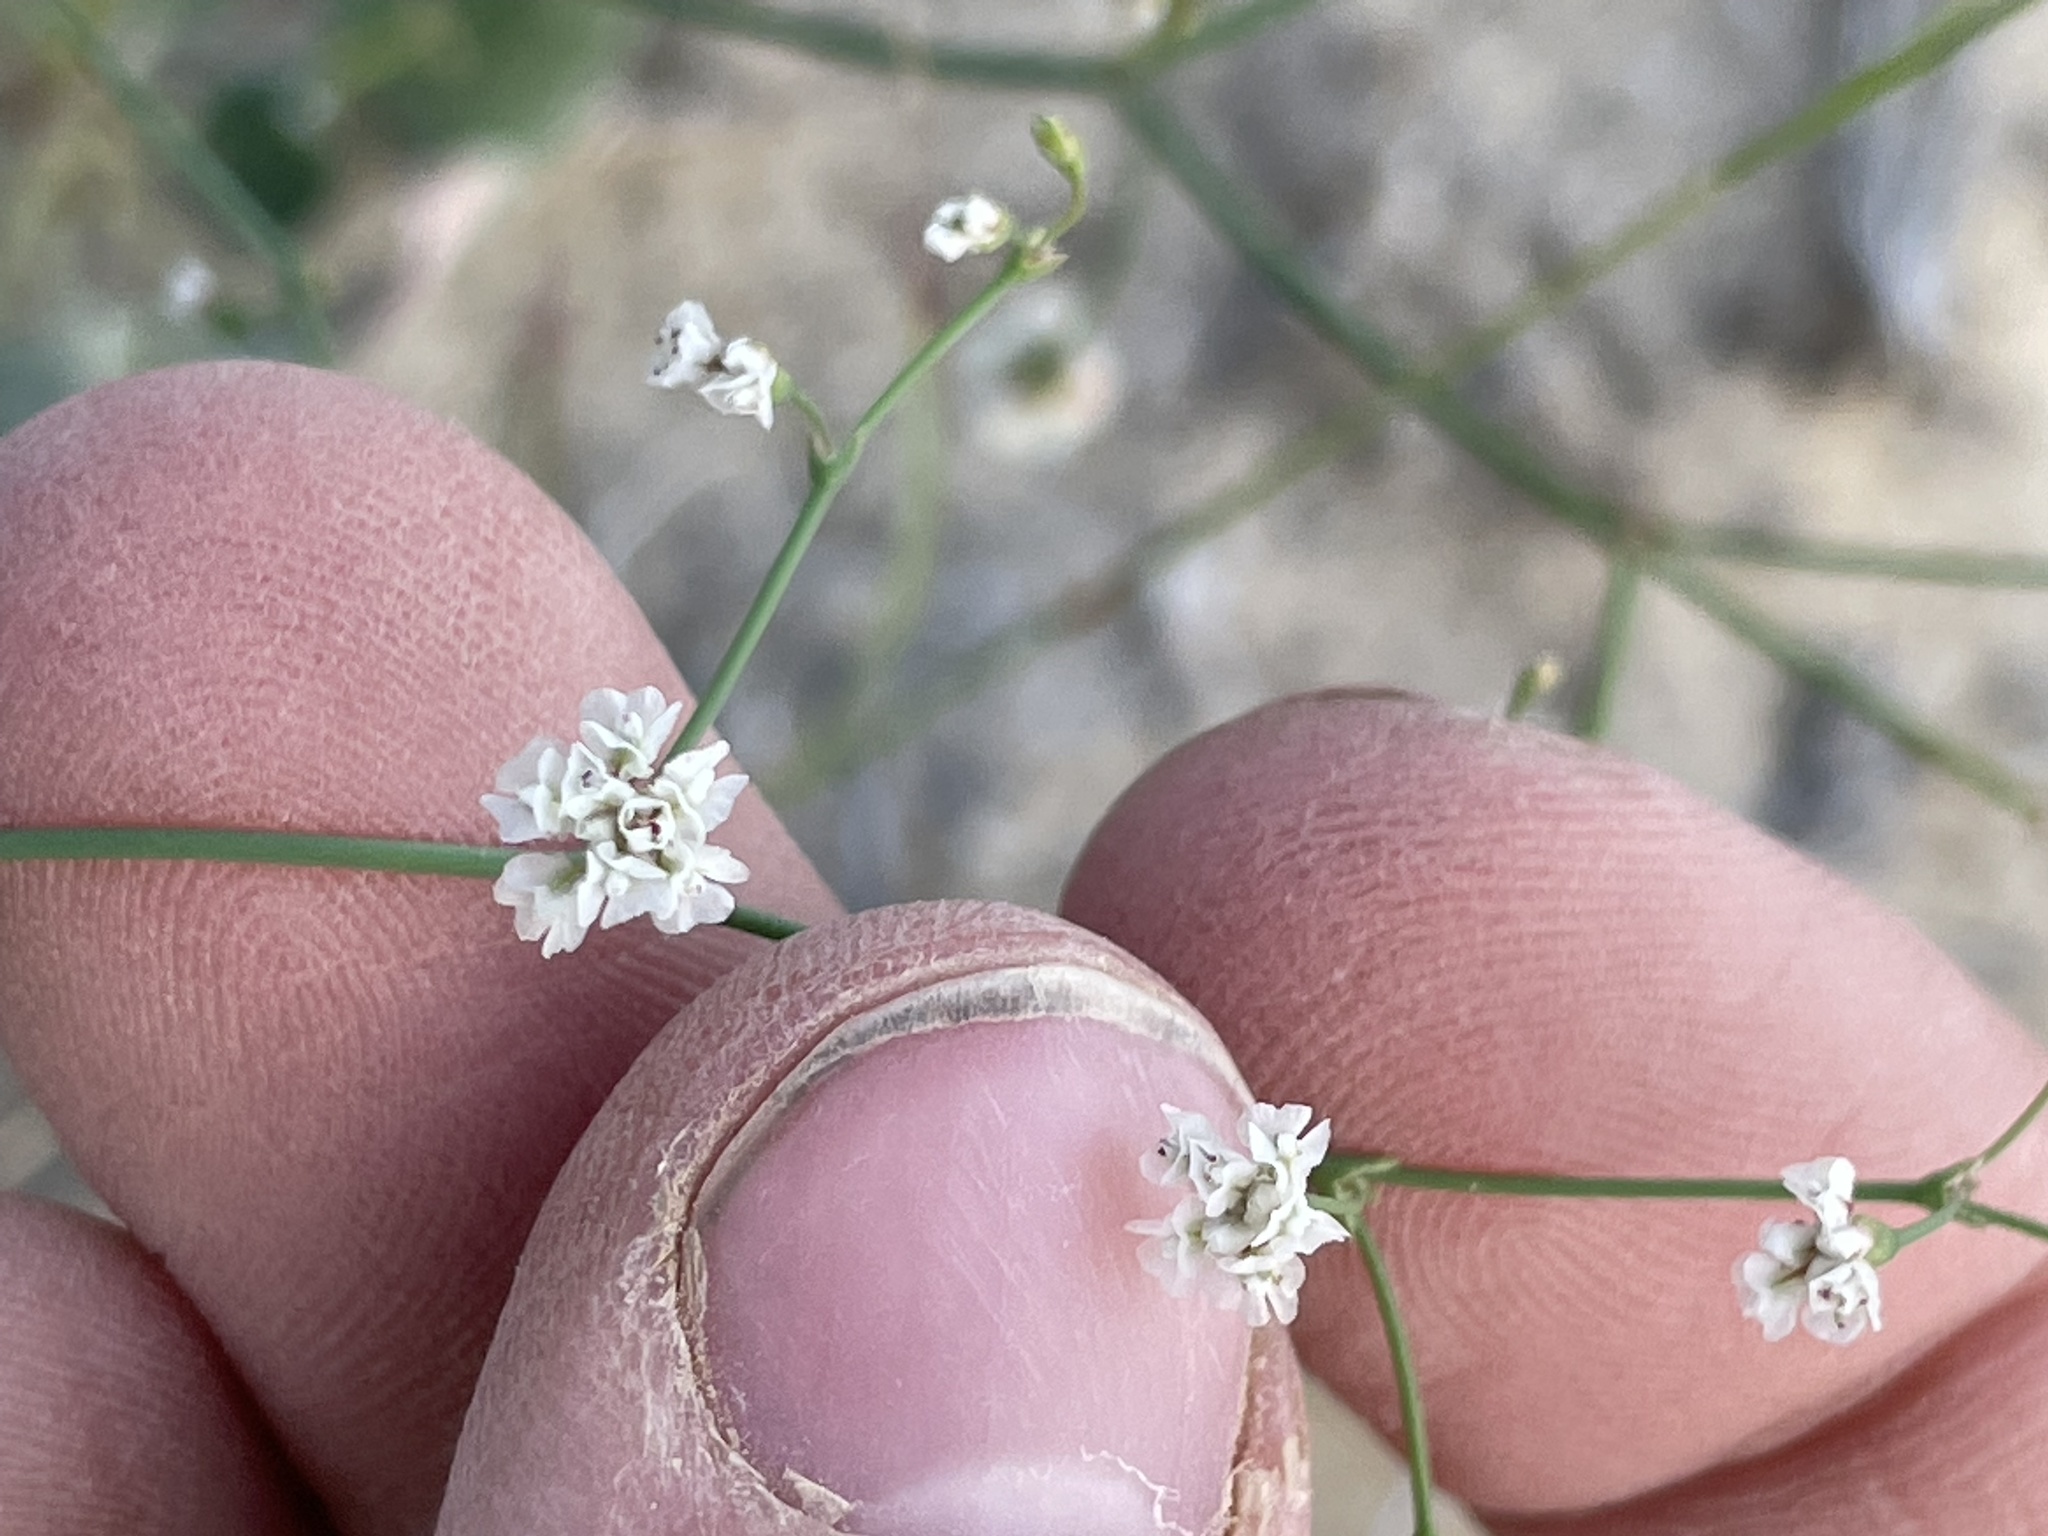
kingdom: Plantae
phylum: Tracheophyta
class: Magnoliopsida
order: Caryophyllales
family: Polygonaceae
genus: Eriogonum
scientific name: Eriogonum cernuum
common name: Nodding wild buckwheat
